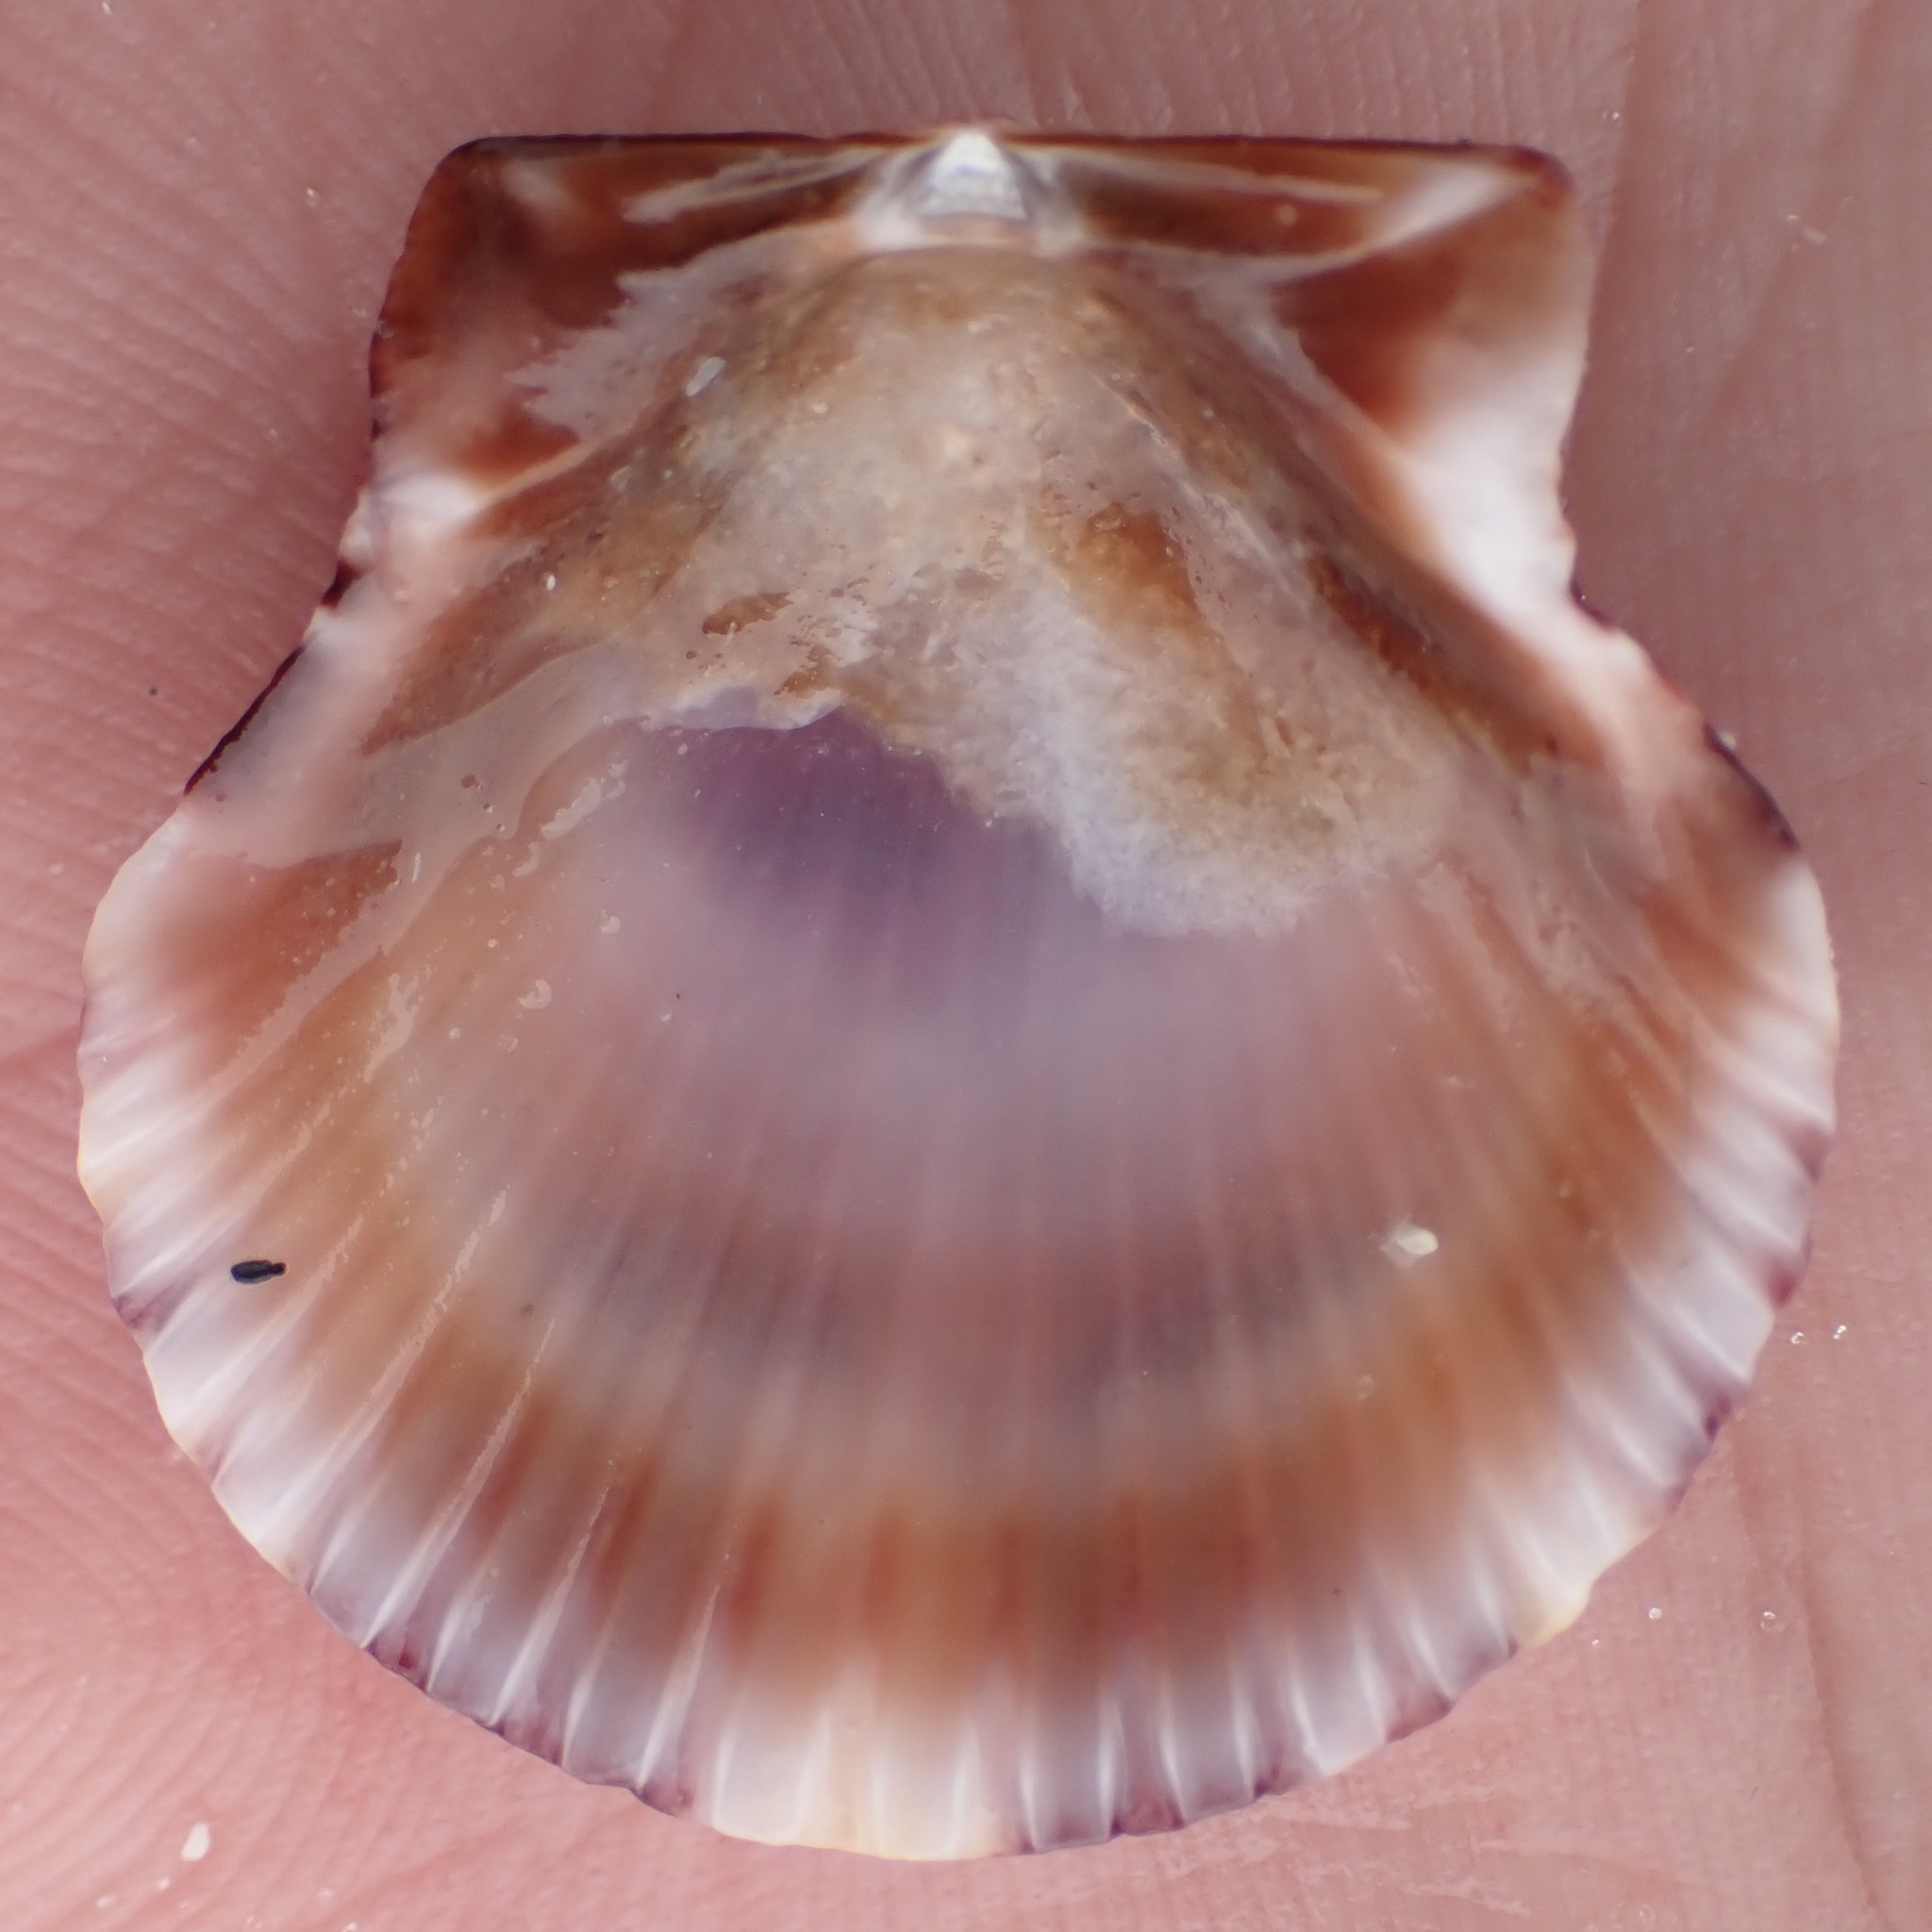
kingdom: Animalia
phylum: Mollusca
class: Bivalvia
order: Pectinida
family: Pectinidae
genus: Argopecten
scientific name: Argopecten gibbus
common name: Atlantic calico scallop
